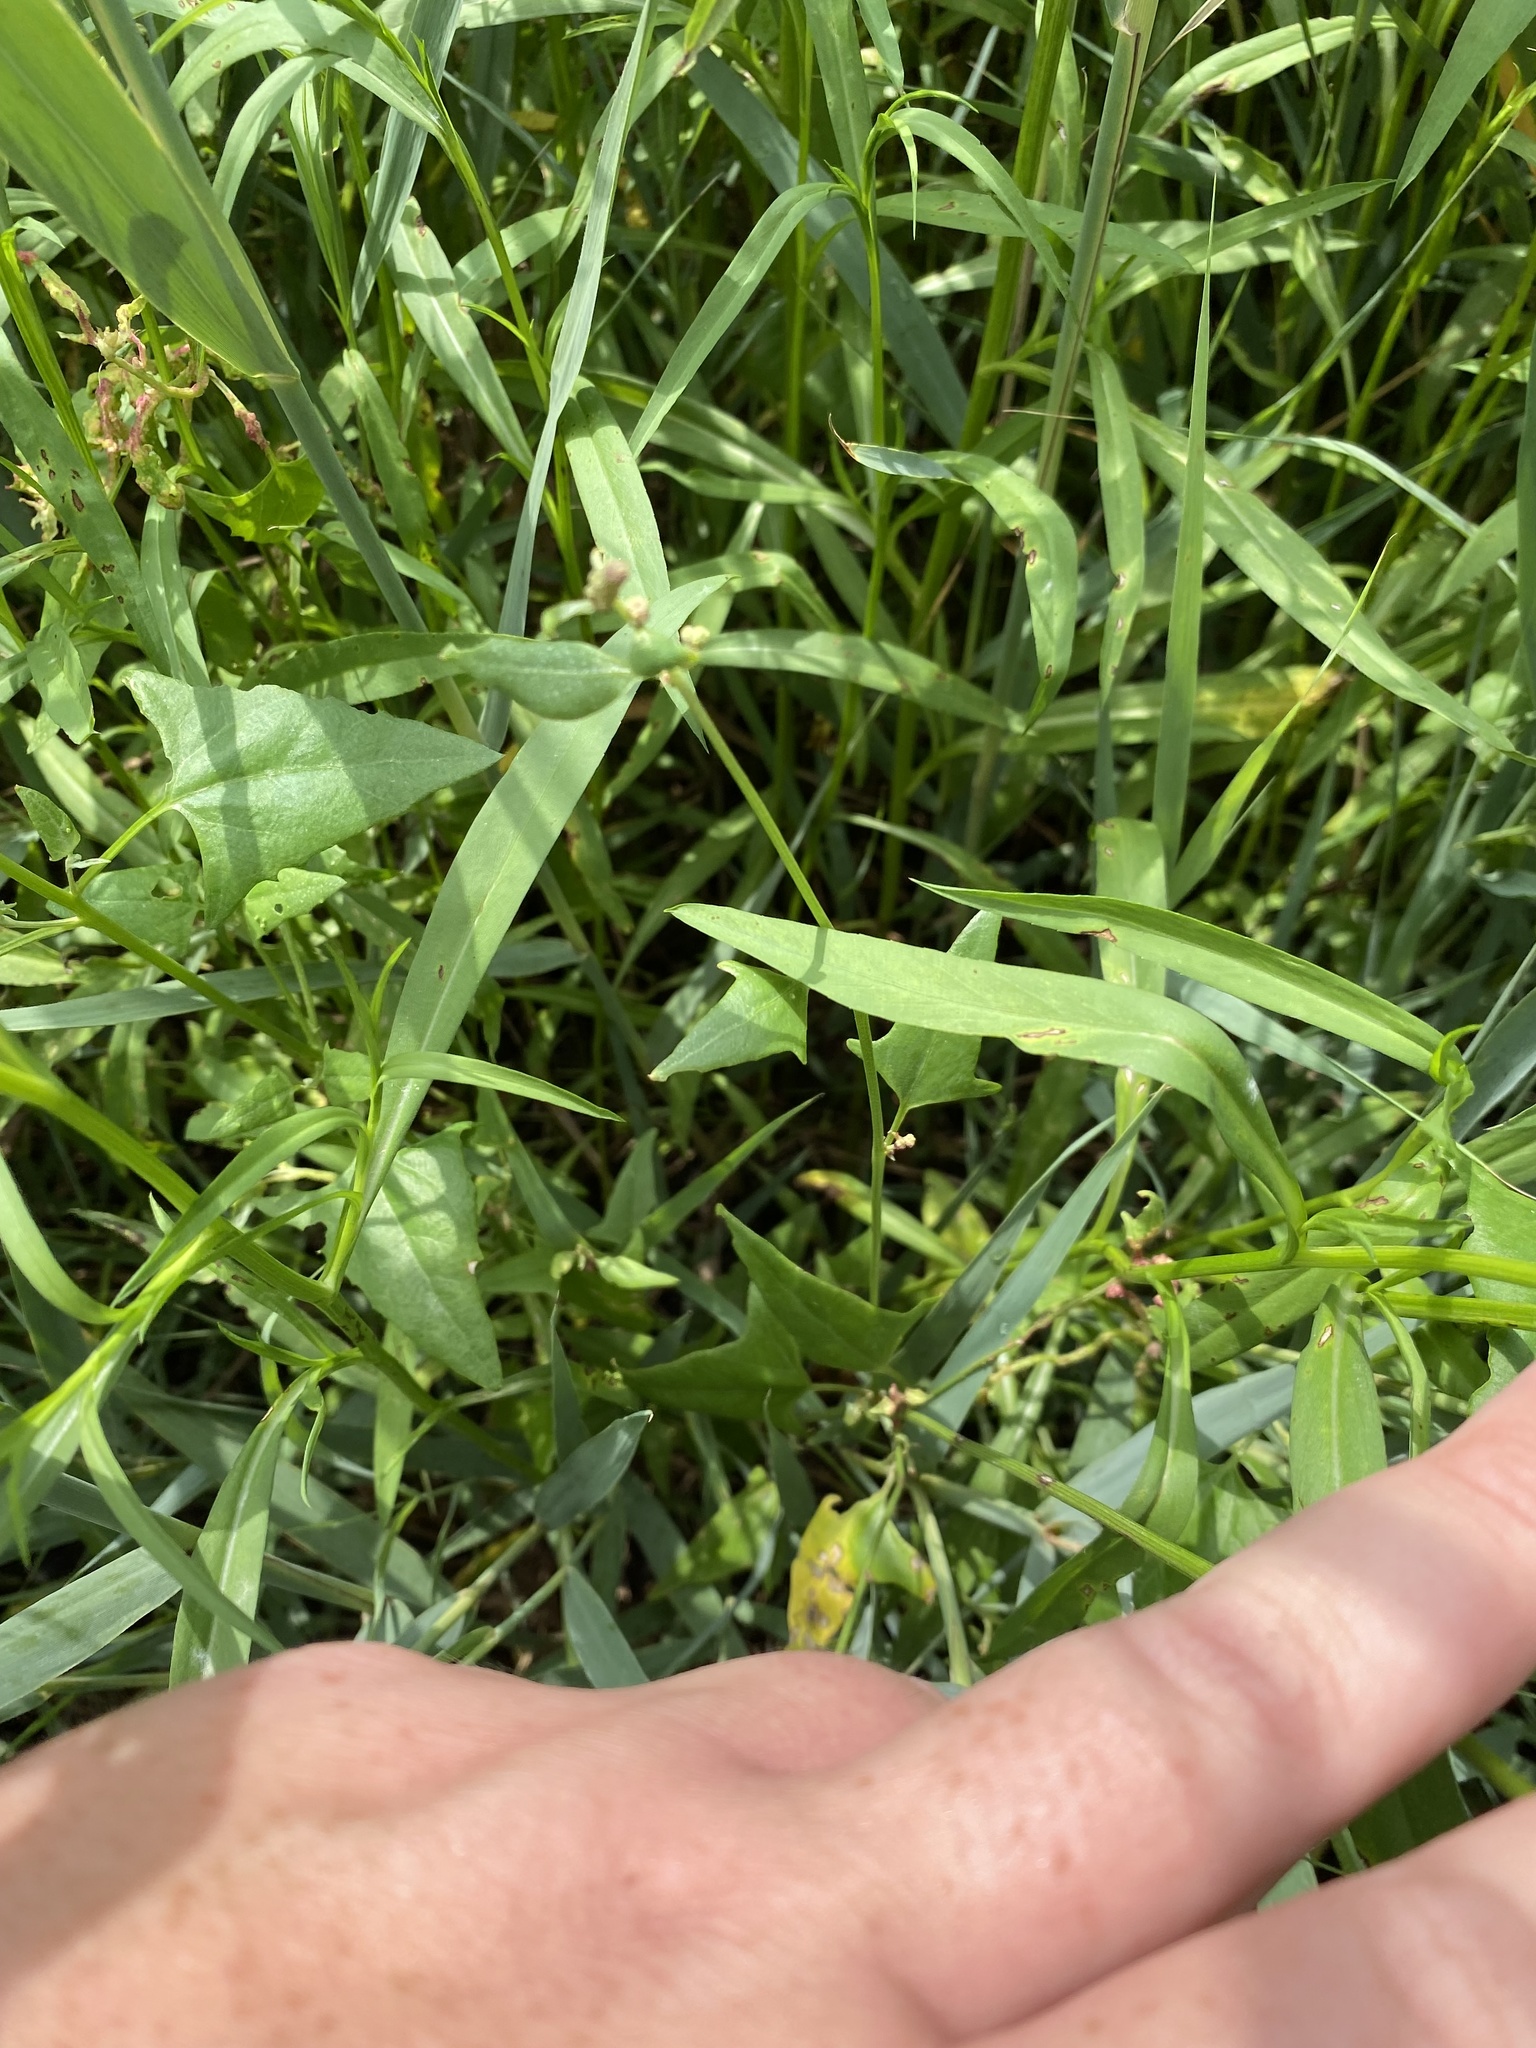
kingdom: Plantae
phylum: Tracheophyta
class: Magnoliopsida
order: Caryophyllales
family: Amaranthaceae
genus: Atriplex
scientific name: Atriplex patula
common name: Common orache
